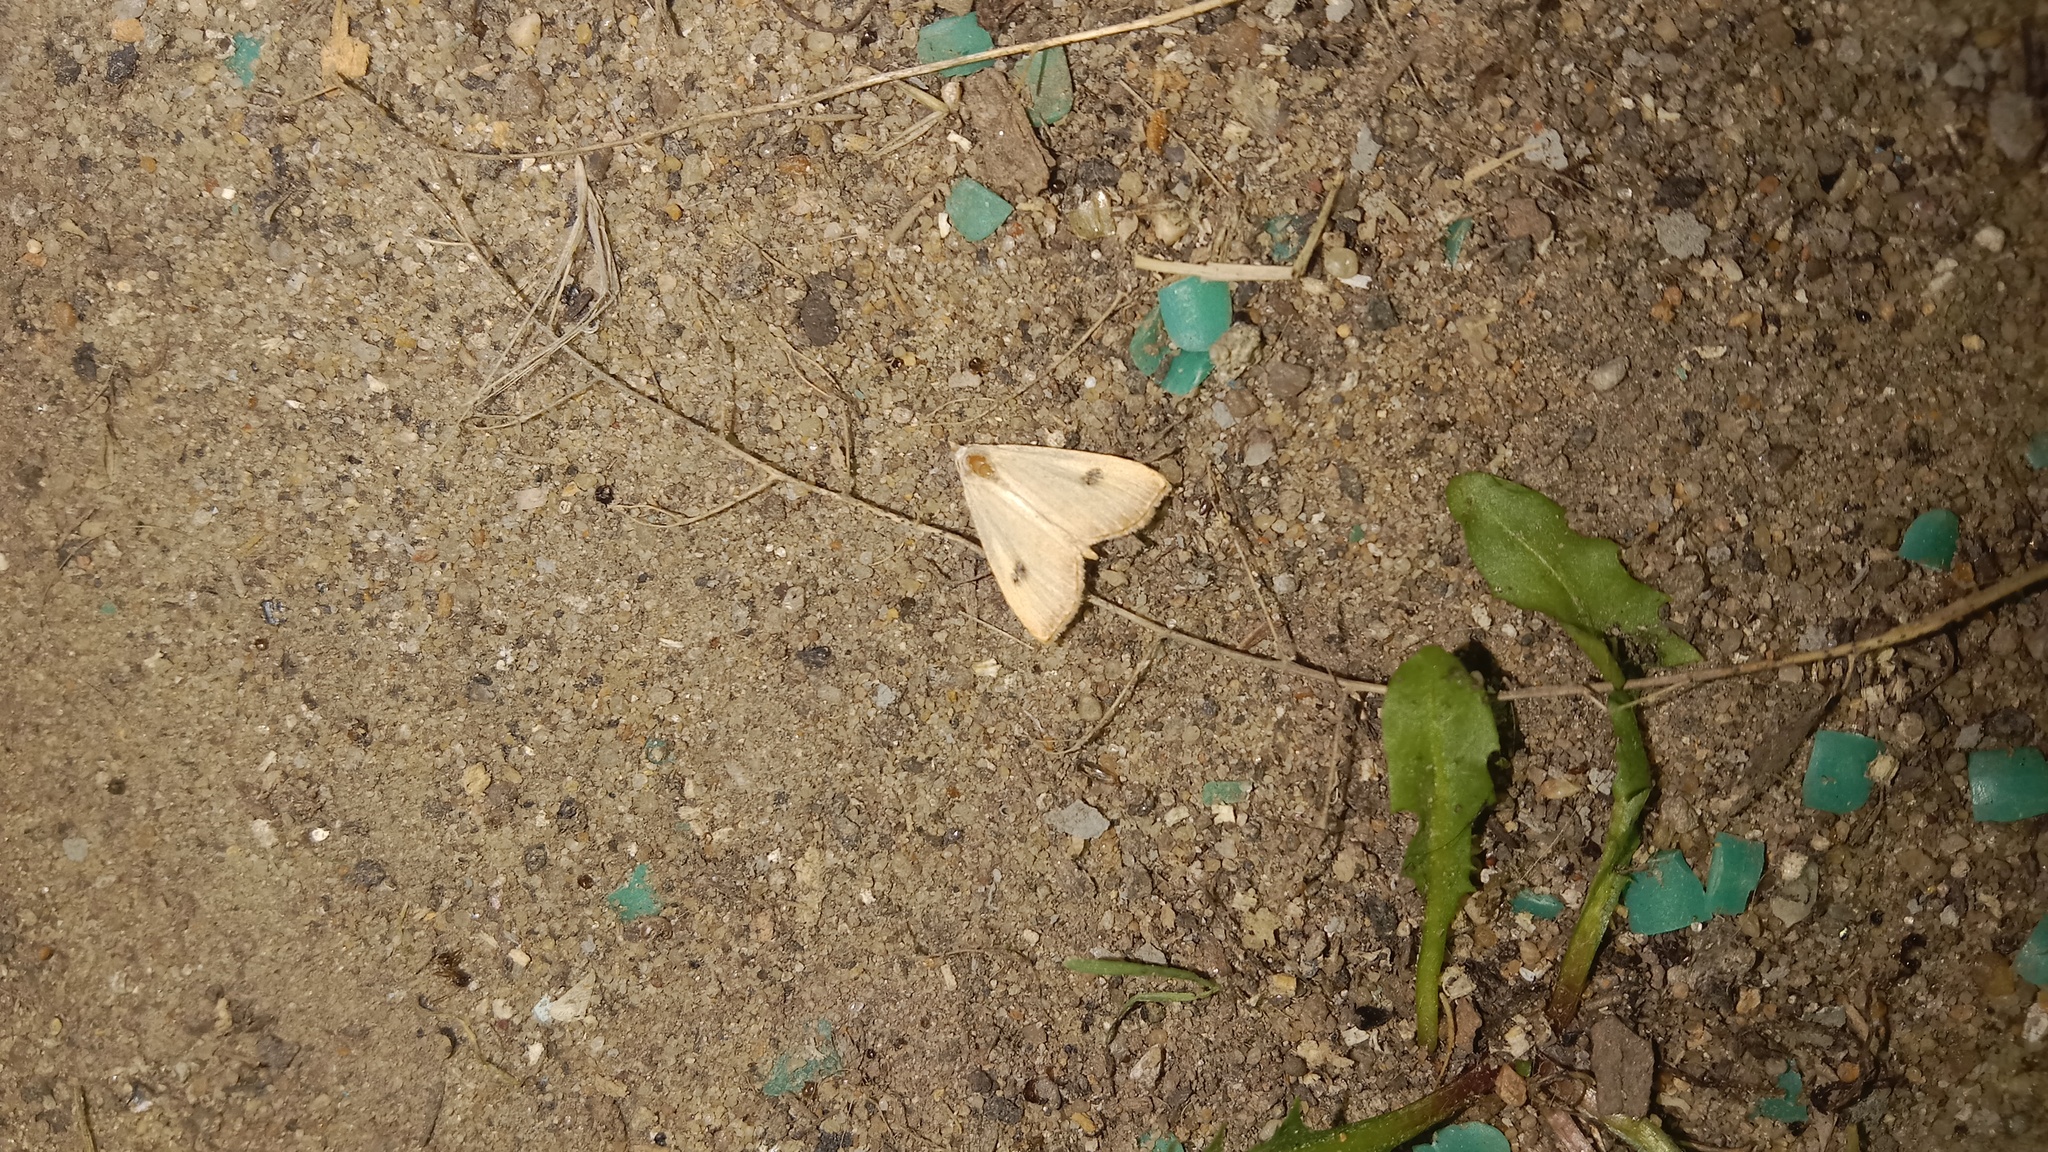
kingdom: Animalia
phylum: Arthropoda
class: Insecta
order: Lepidoptera
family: Erebidae
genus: Rivula
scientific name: Rivula sericealis
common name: Straw dot
